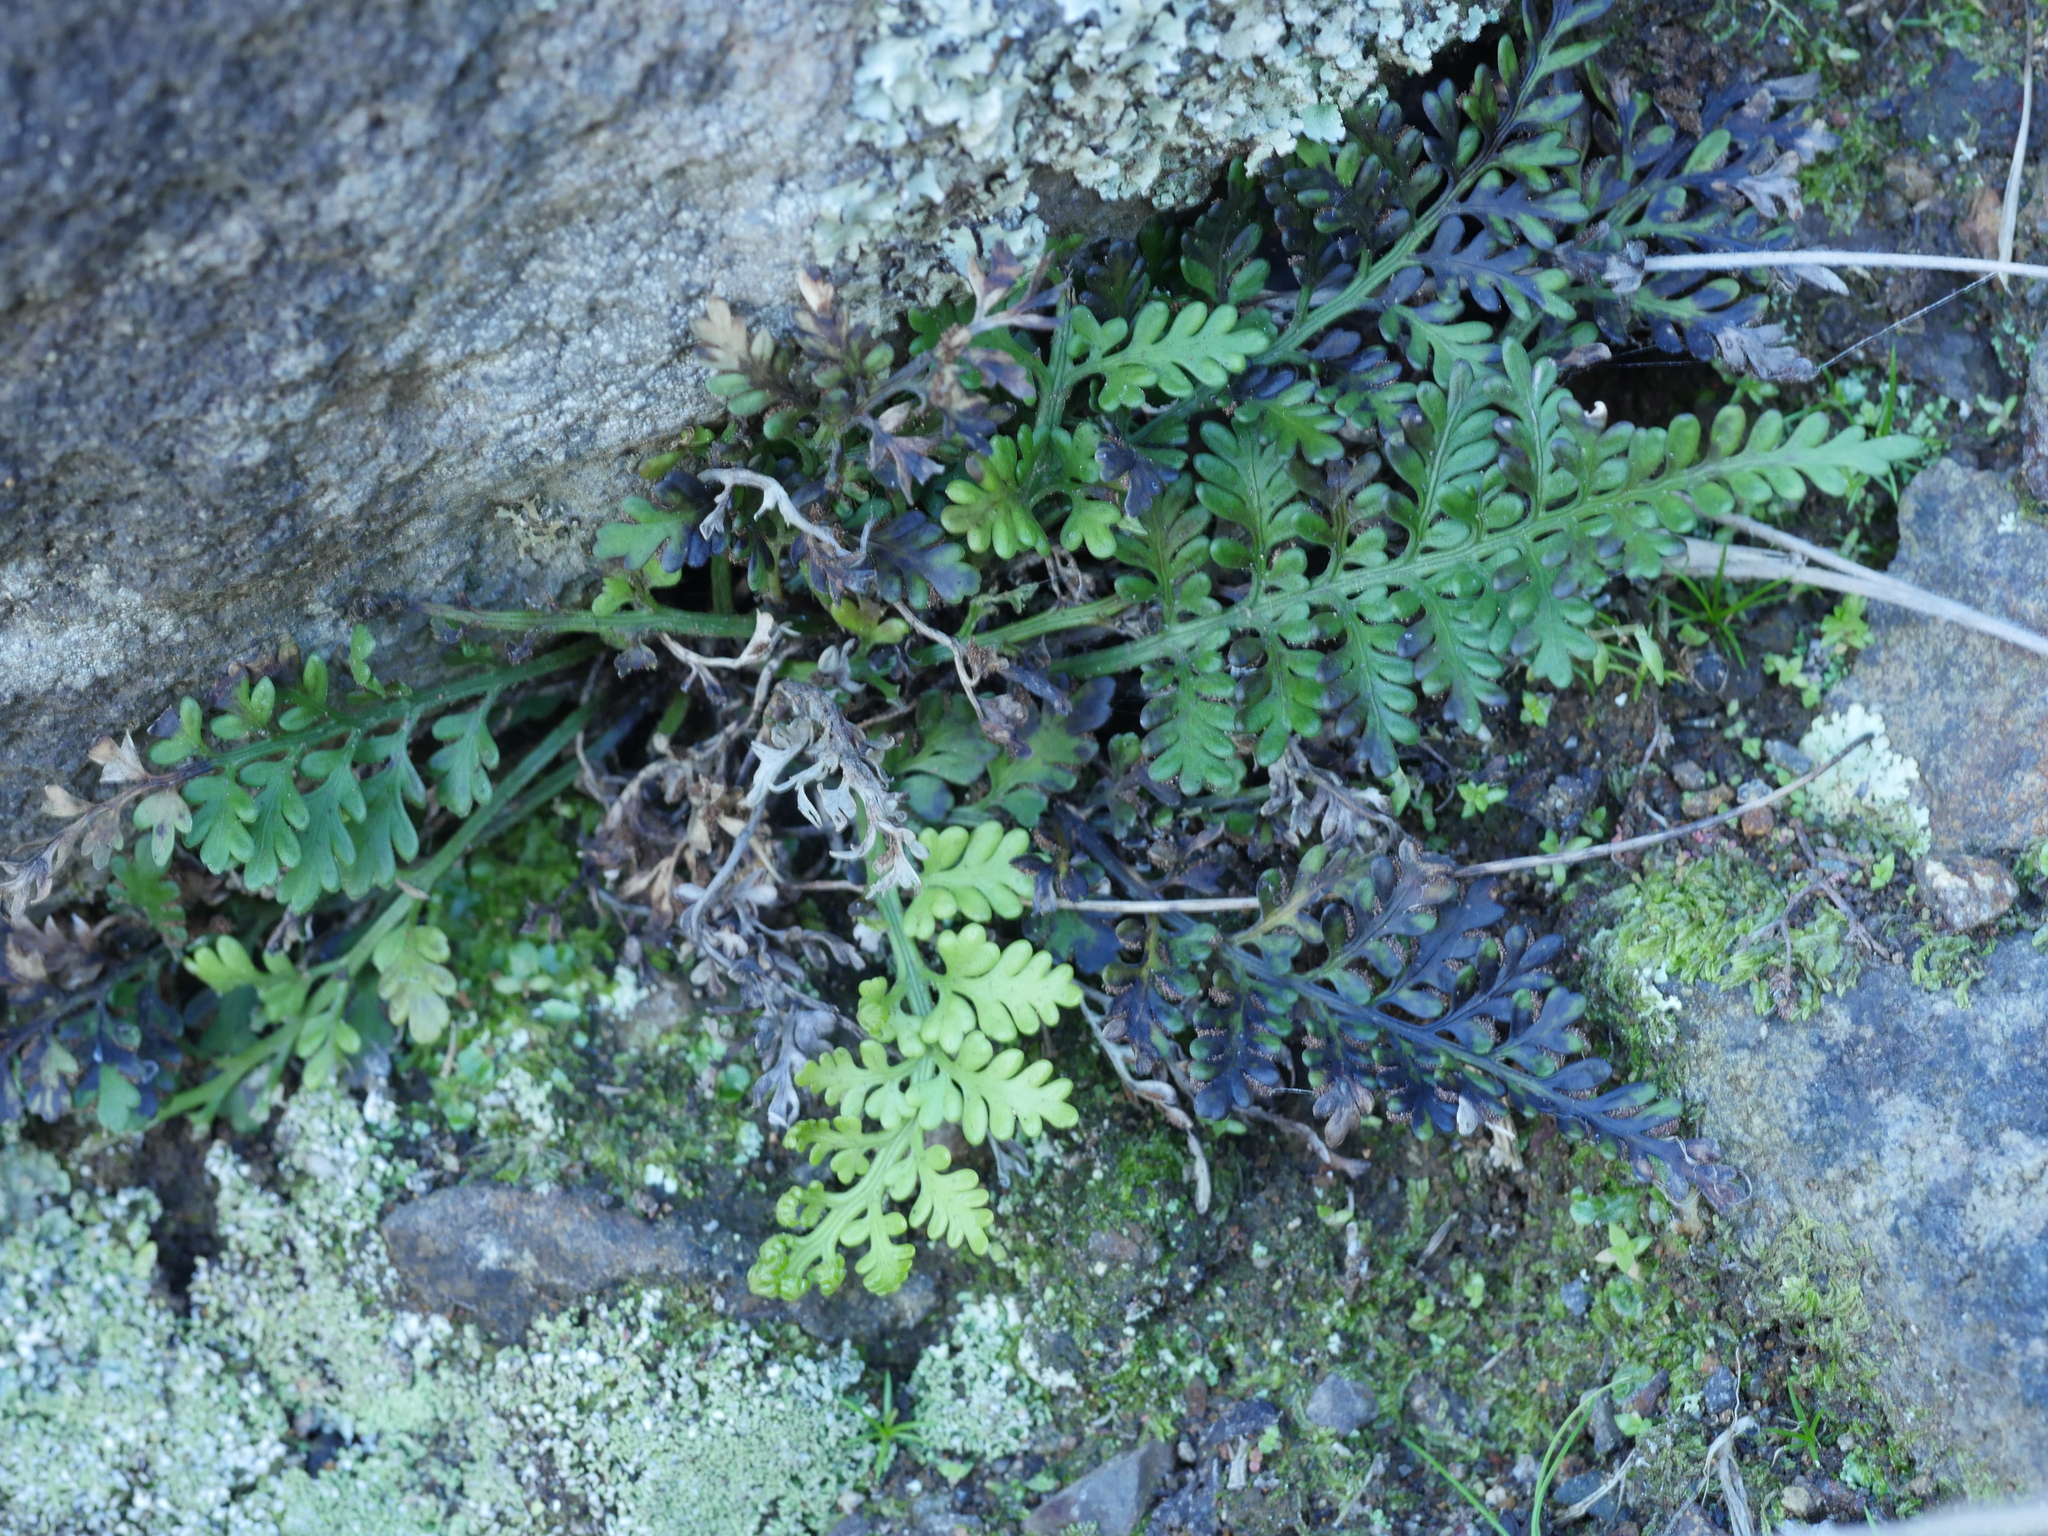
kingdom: Plantae
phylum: Tracheophyta
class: Polypodiopsida
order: Polypodiales
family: Aspleniaceae
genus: Asplenium
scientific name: Asplenium appendiculatum
